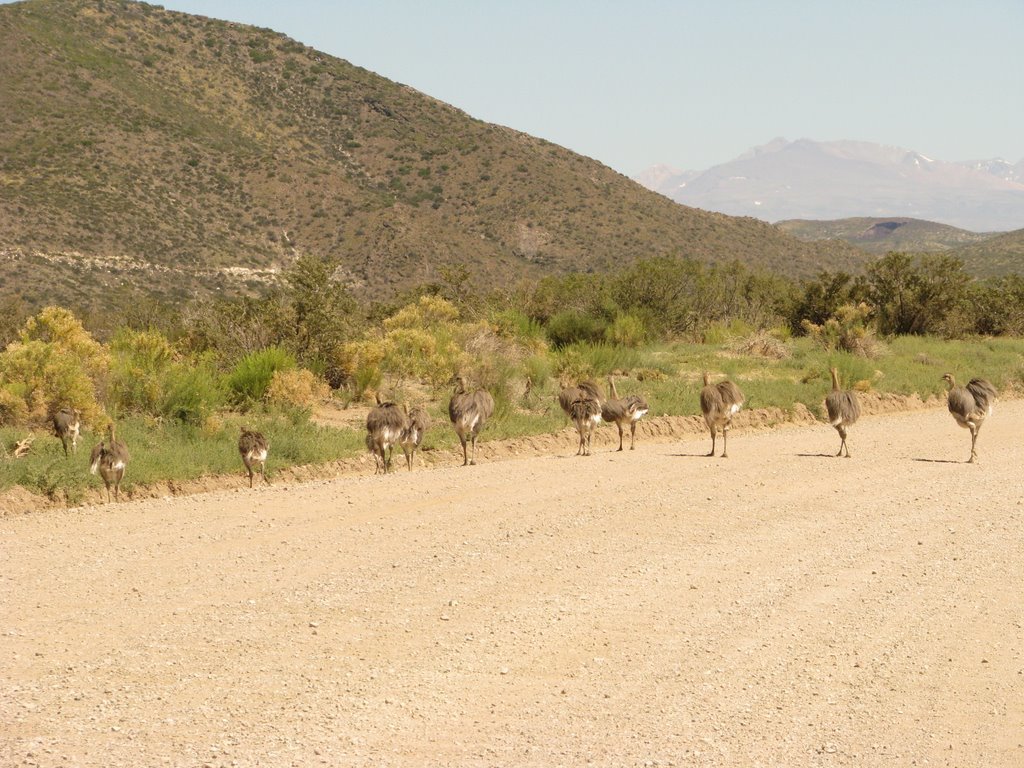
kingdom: Animalia
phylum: Chordata
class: Aves
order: Rheiformes
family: Rheidae
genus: Rhea
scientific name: Rhea pennata
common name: Lesser rhea
